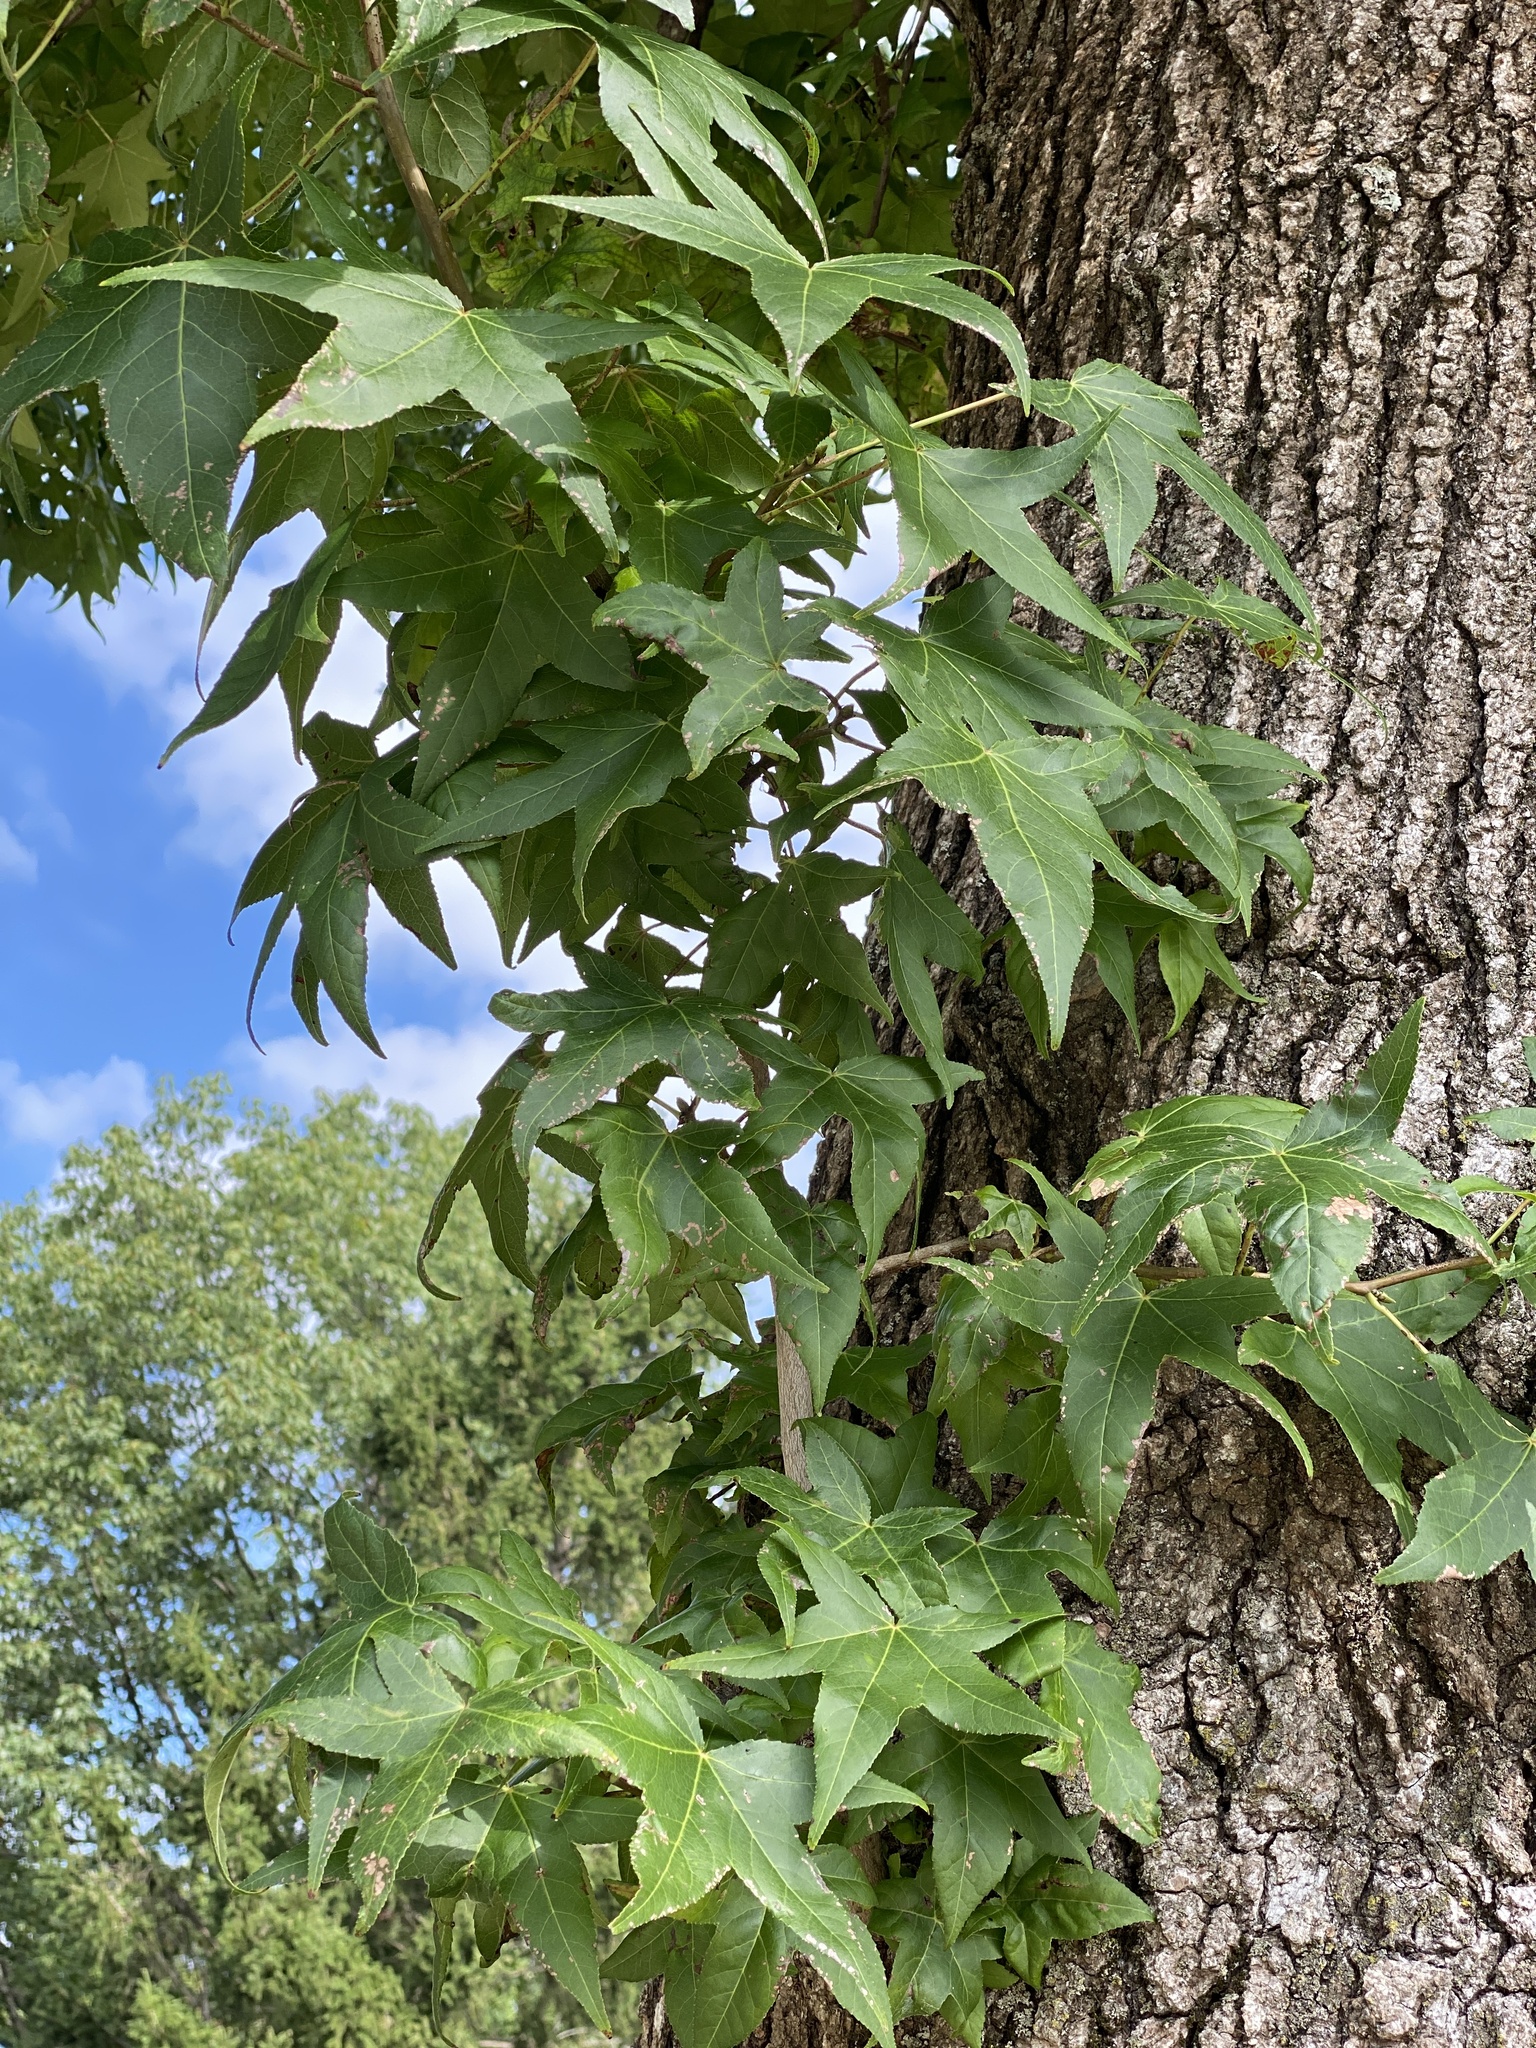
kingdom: Plantae
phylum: Tracheophyta
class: Magnoliopsida
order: Saxifragales
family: Altingiaceae
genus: Liquidambar
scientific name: Liquidambar styraciflua
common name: Sweet gum
